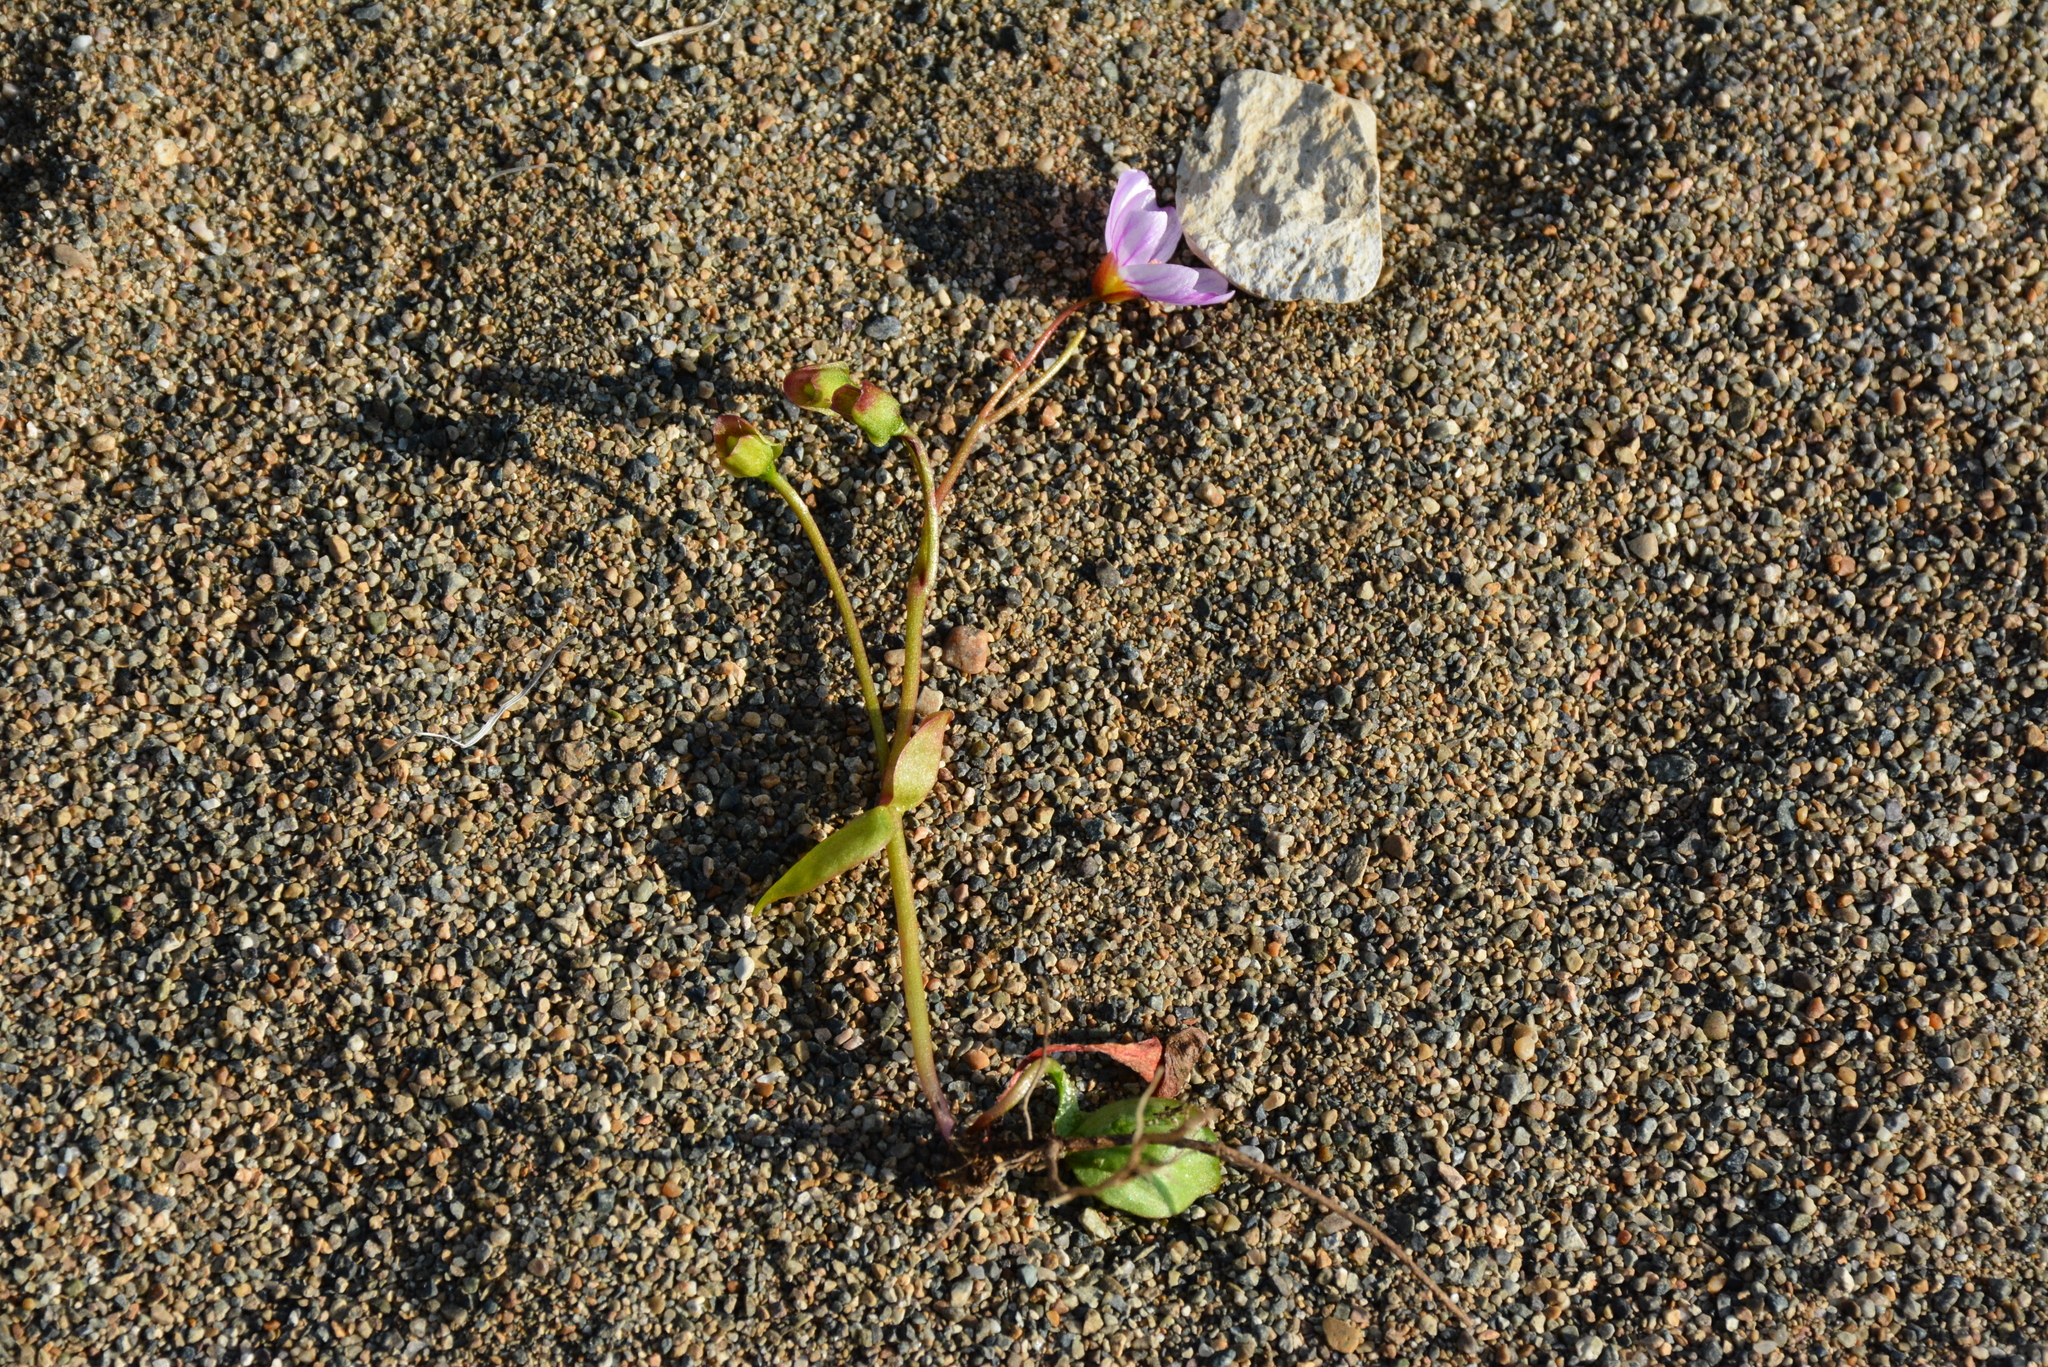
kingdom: Plantae
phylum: Tracheophyta
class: Magnoliopsida
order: Caryophyllales
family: Montiaceae
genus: Claytonia
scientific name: Claytonia sarmentosa
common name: Alaska spring beauty
